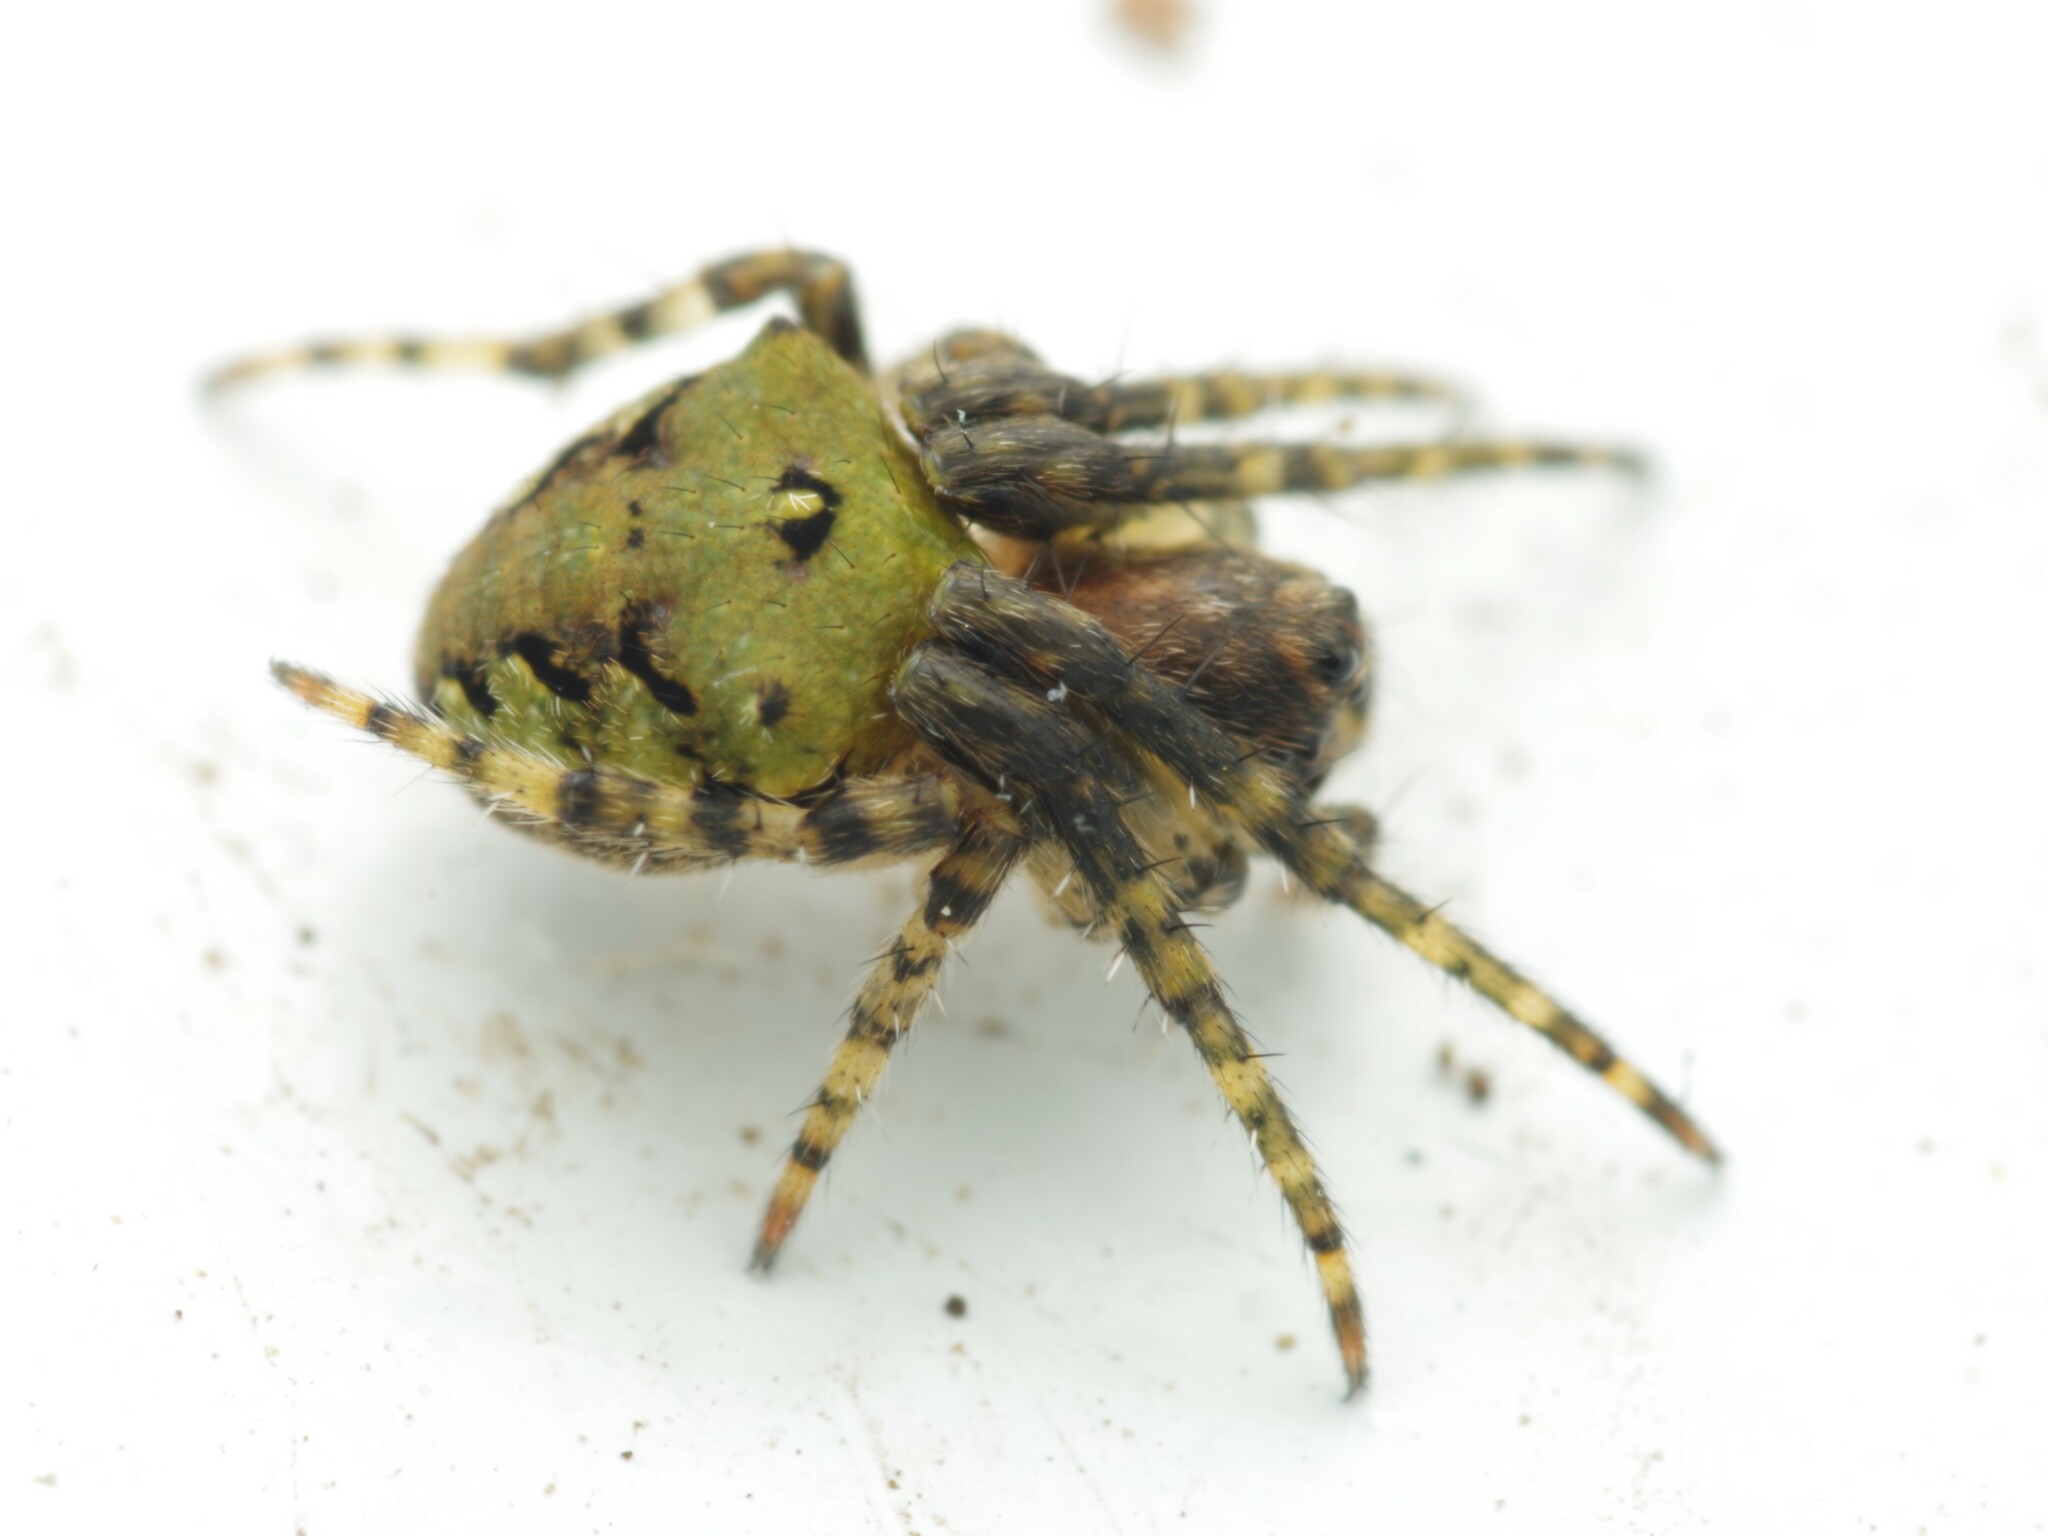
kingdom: Animalia
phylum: Arthropoda
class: Arachnida
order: Araneae
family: Araneidae
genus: Gibbaranea
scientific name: Gibbaranea gibbosa
